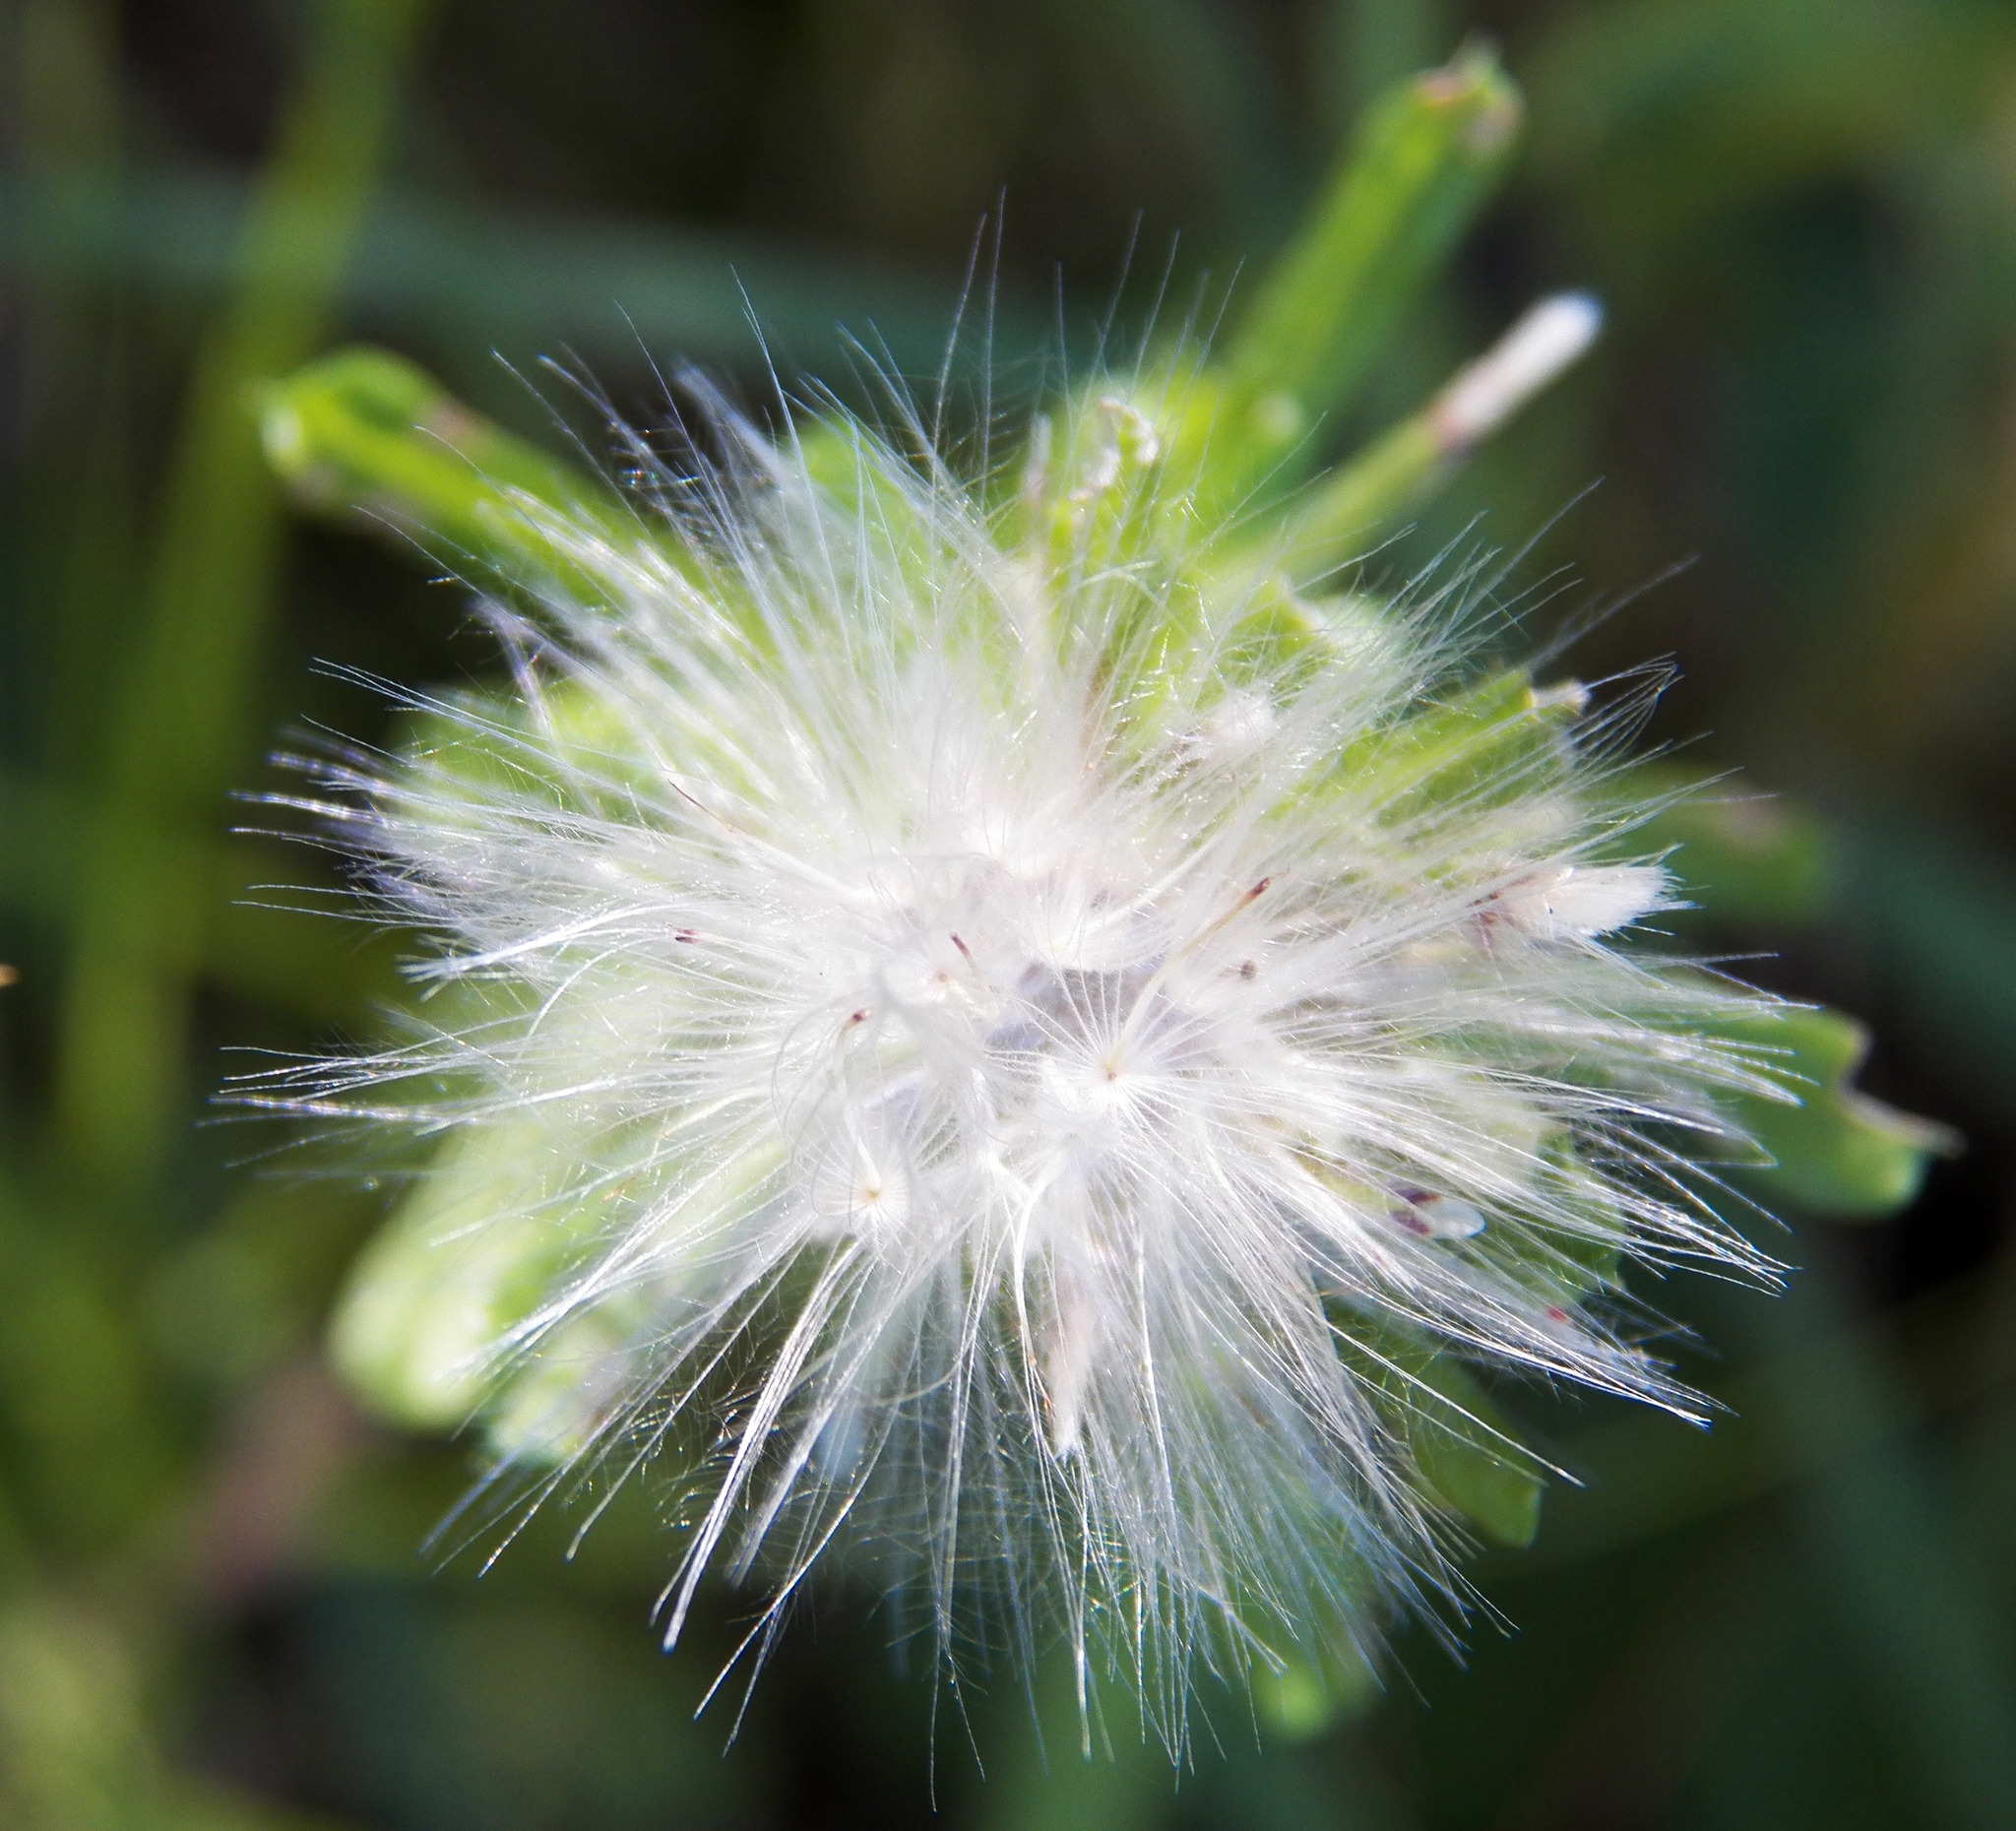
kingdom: Plantae
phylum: Tracheophyta
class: Magnoliopsida
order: Asterales
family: Asteraceae
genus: Facelis
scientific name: Facelis retusa
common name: Annual trampweed
